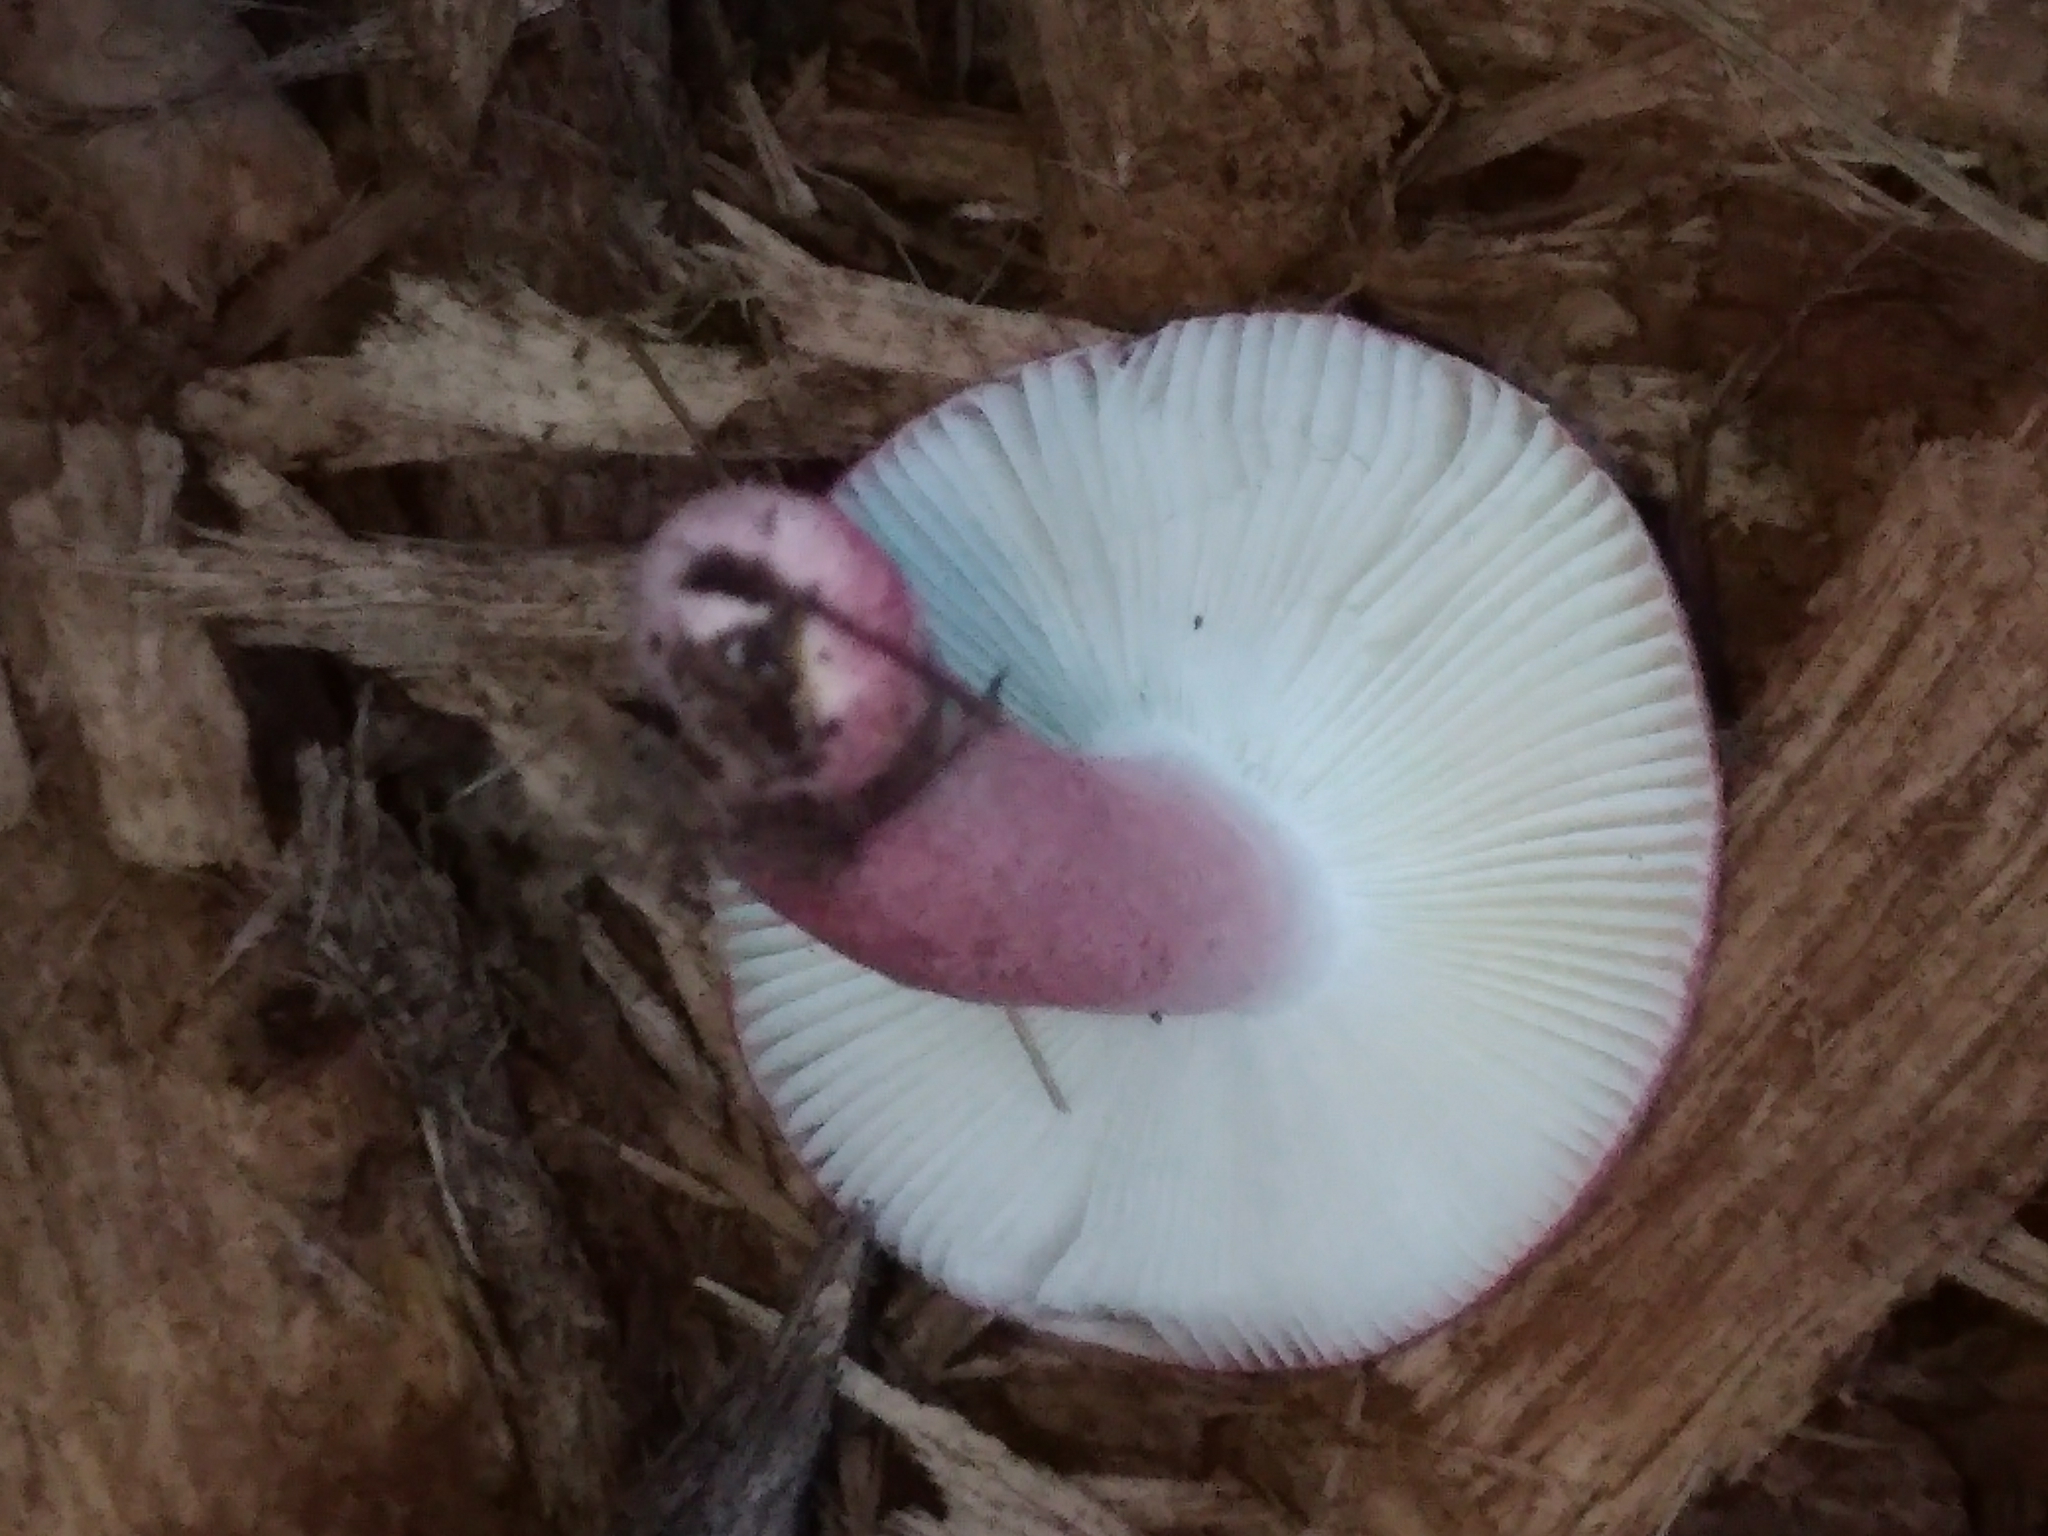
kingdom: Fungi
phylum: Basidiomycota
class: Agaricomycetes
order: Russulales
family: Russulaceae
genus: Russula
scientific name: Russula sardonia
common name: Primrose brittlegill
